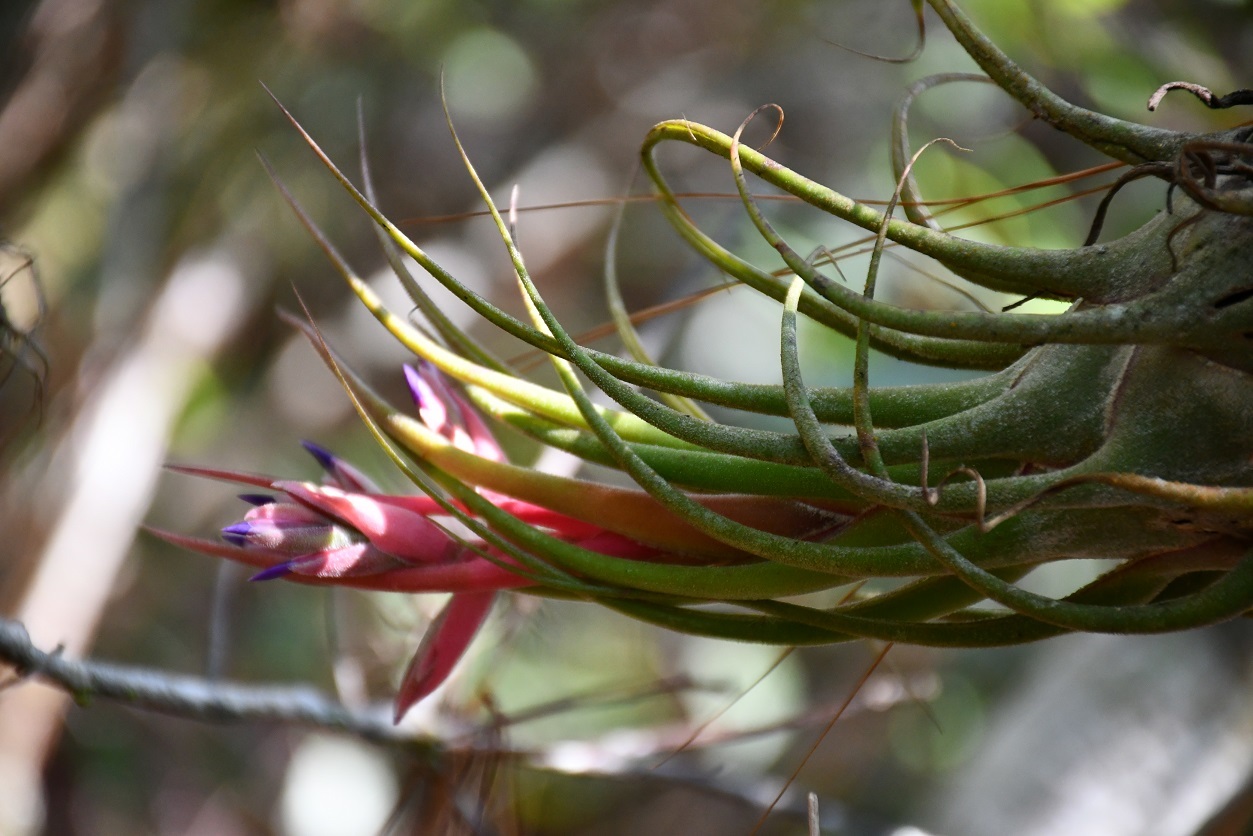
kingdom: Plantae
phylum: Tracheophyta
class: Liliopsida
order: Poales
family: Bromeliaceae
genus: Tillandsia
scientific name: Tillandsia seleriana
